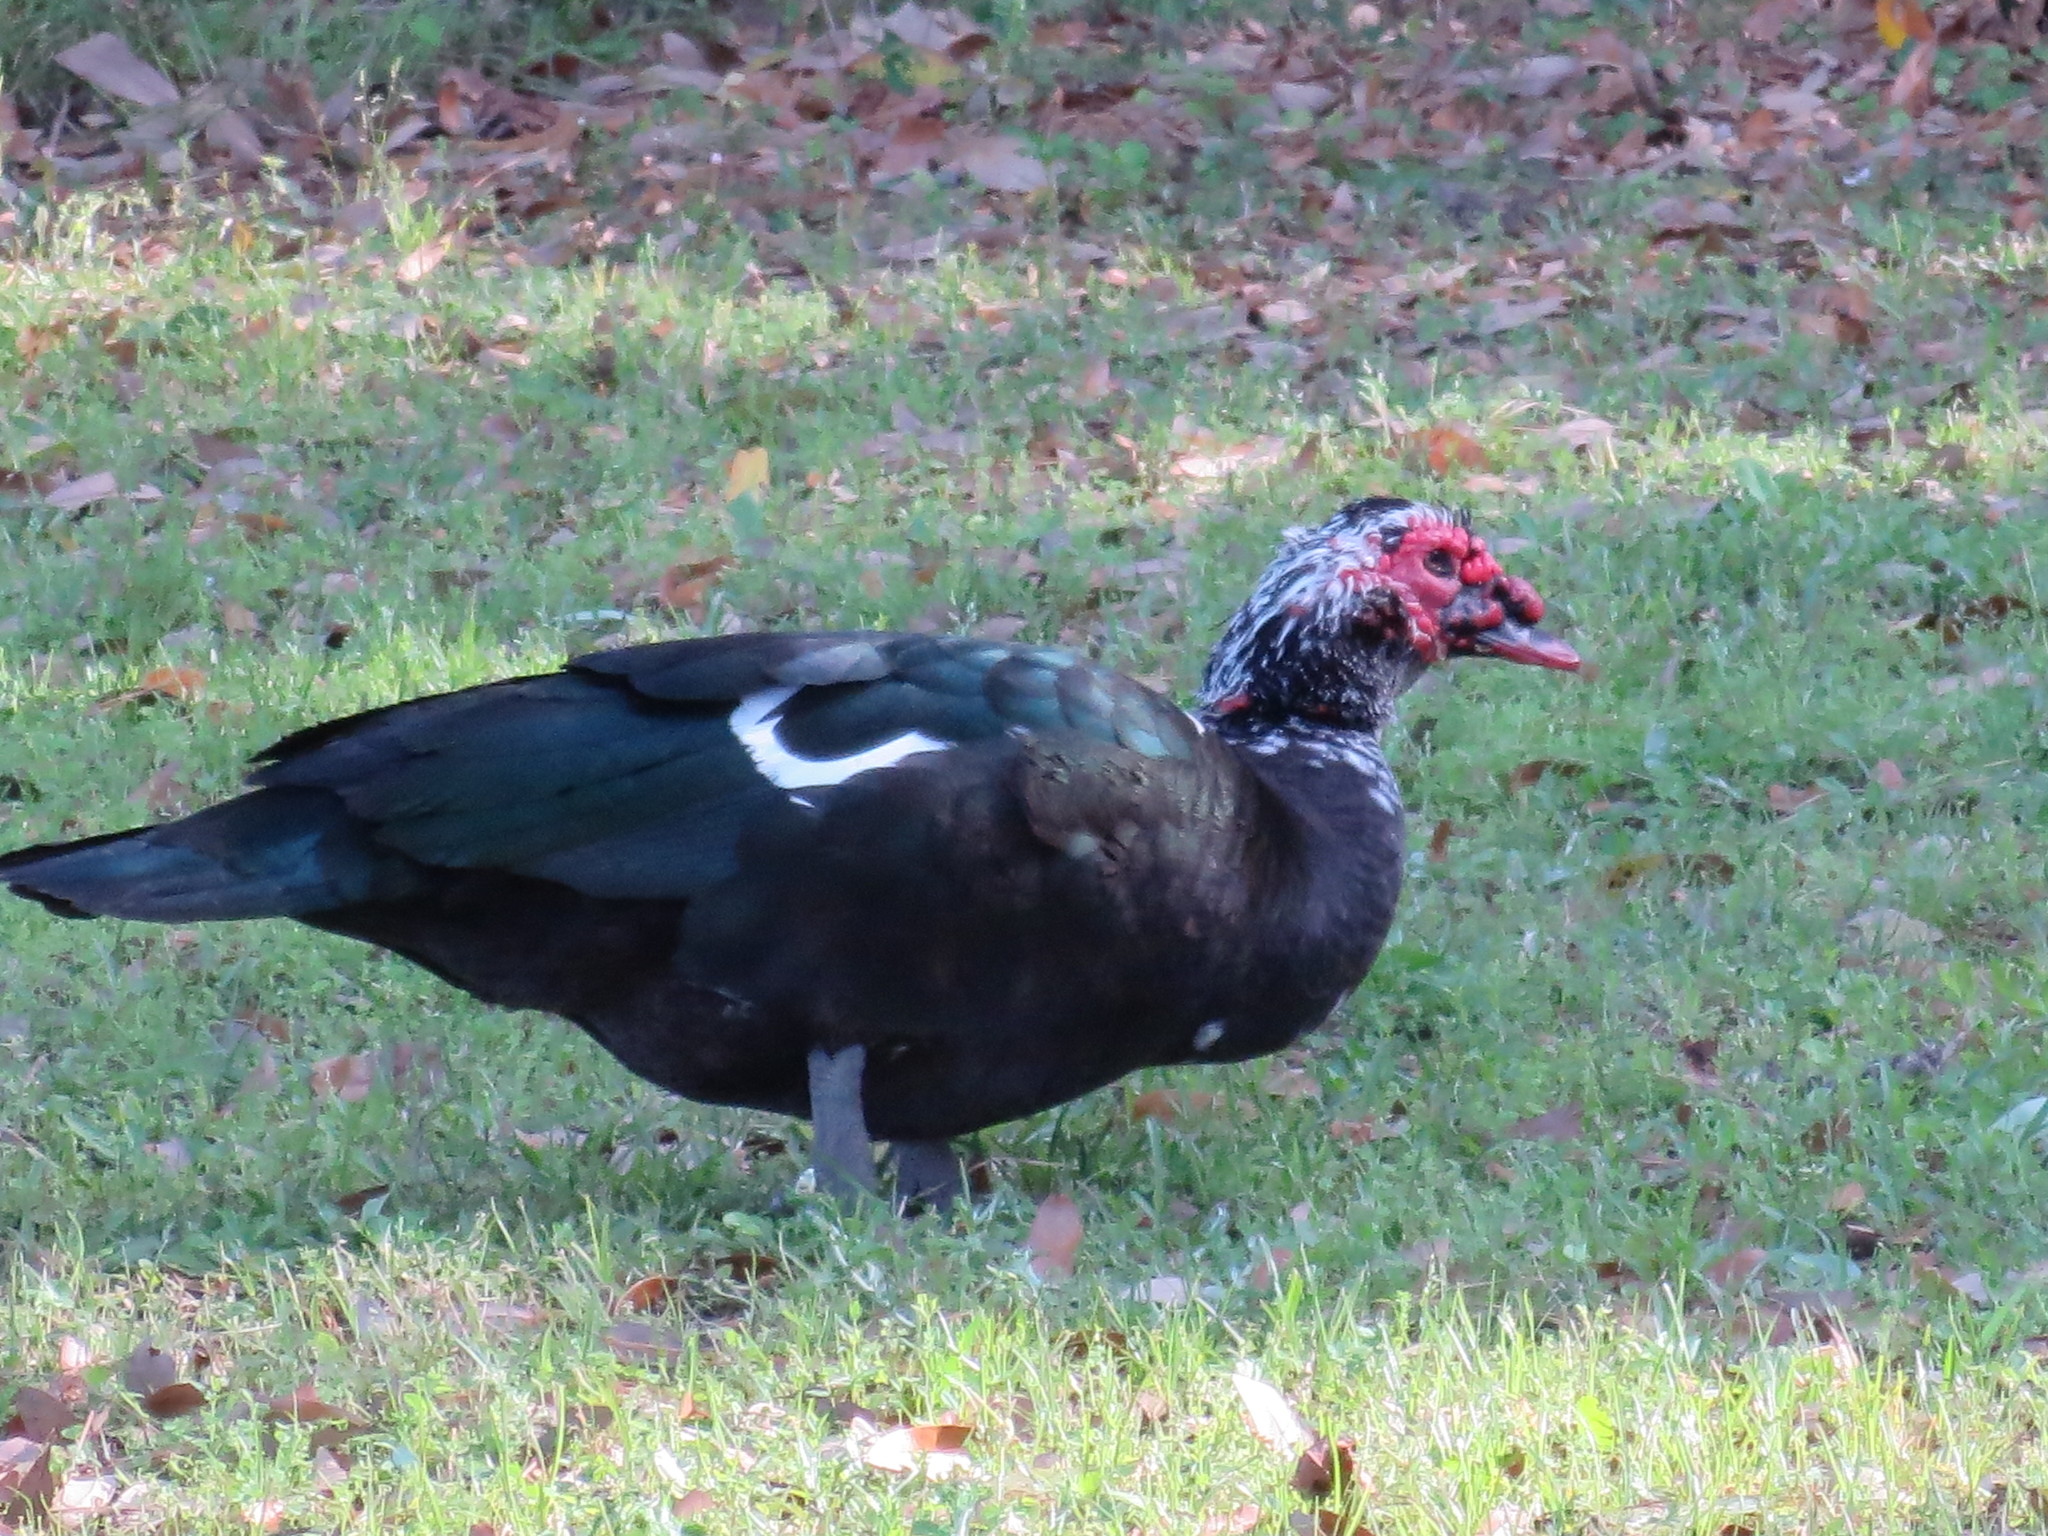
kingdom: Animalia
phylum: Chordata
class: Aves
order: Anseriformes
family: Anatidae
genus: Cairina
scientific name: Cairina moschata
